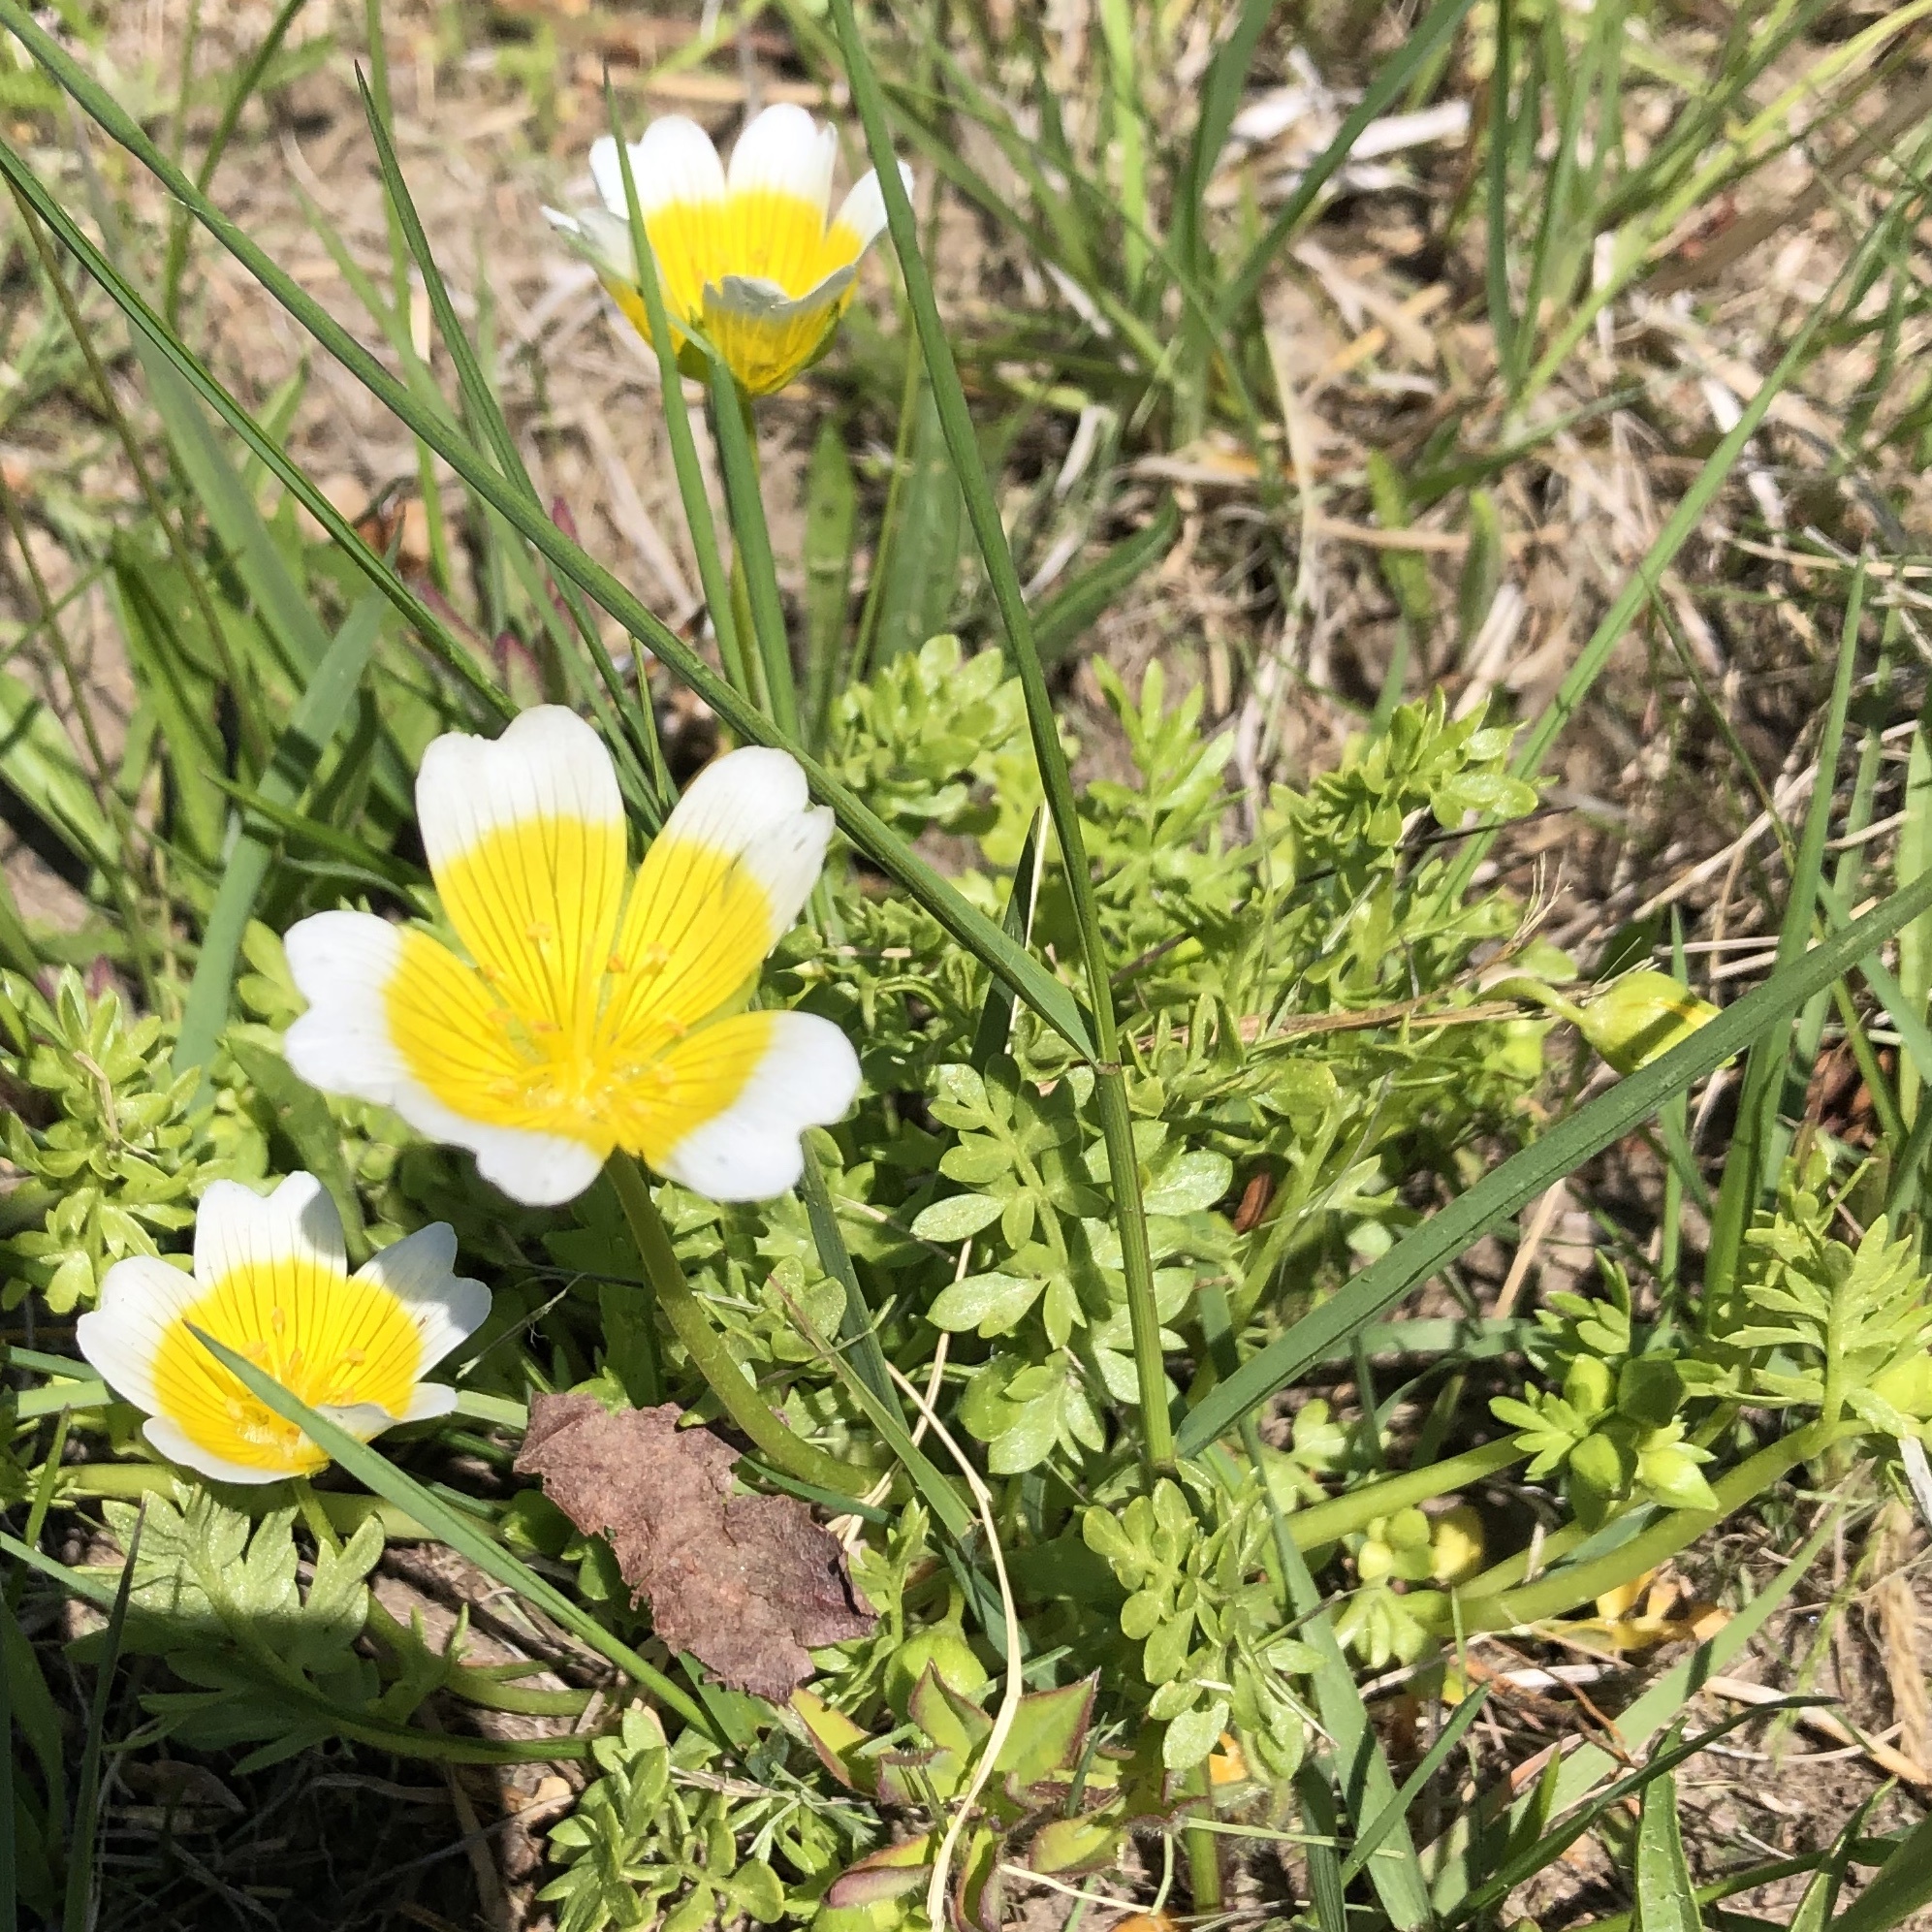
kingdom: Plantae
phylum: Tracheophyta
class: Magnoliopsida
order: Brassicales
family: Limnanthaceae
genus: Limnanthes
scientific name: Limnanthes douglasii
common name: Meadow-foam
